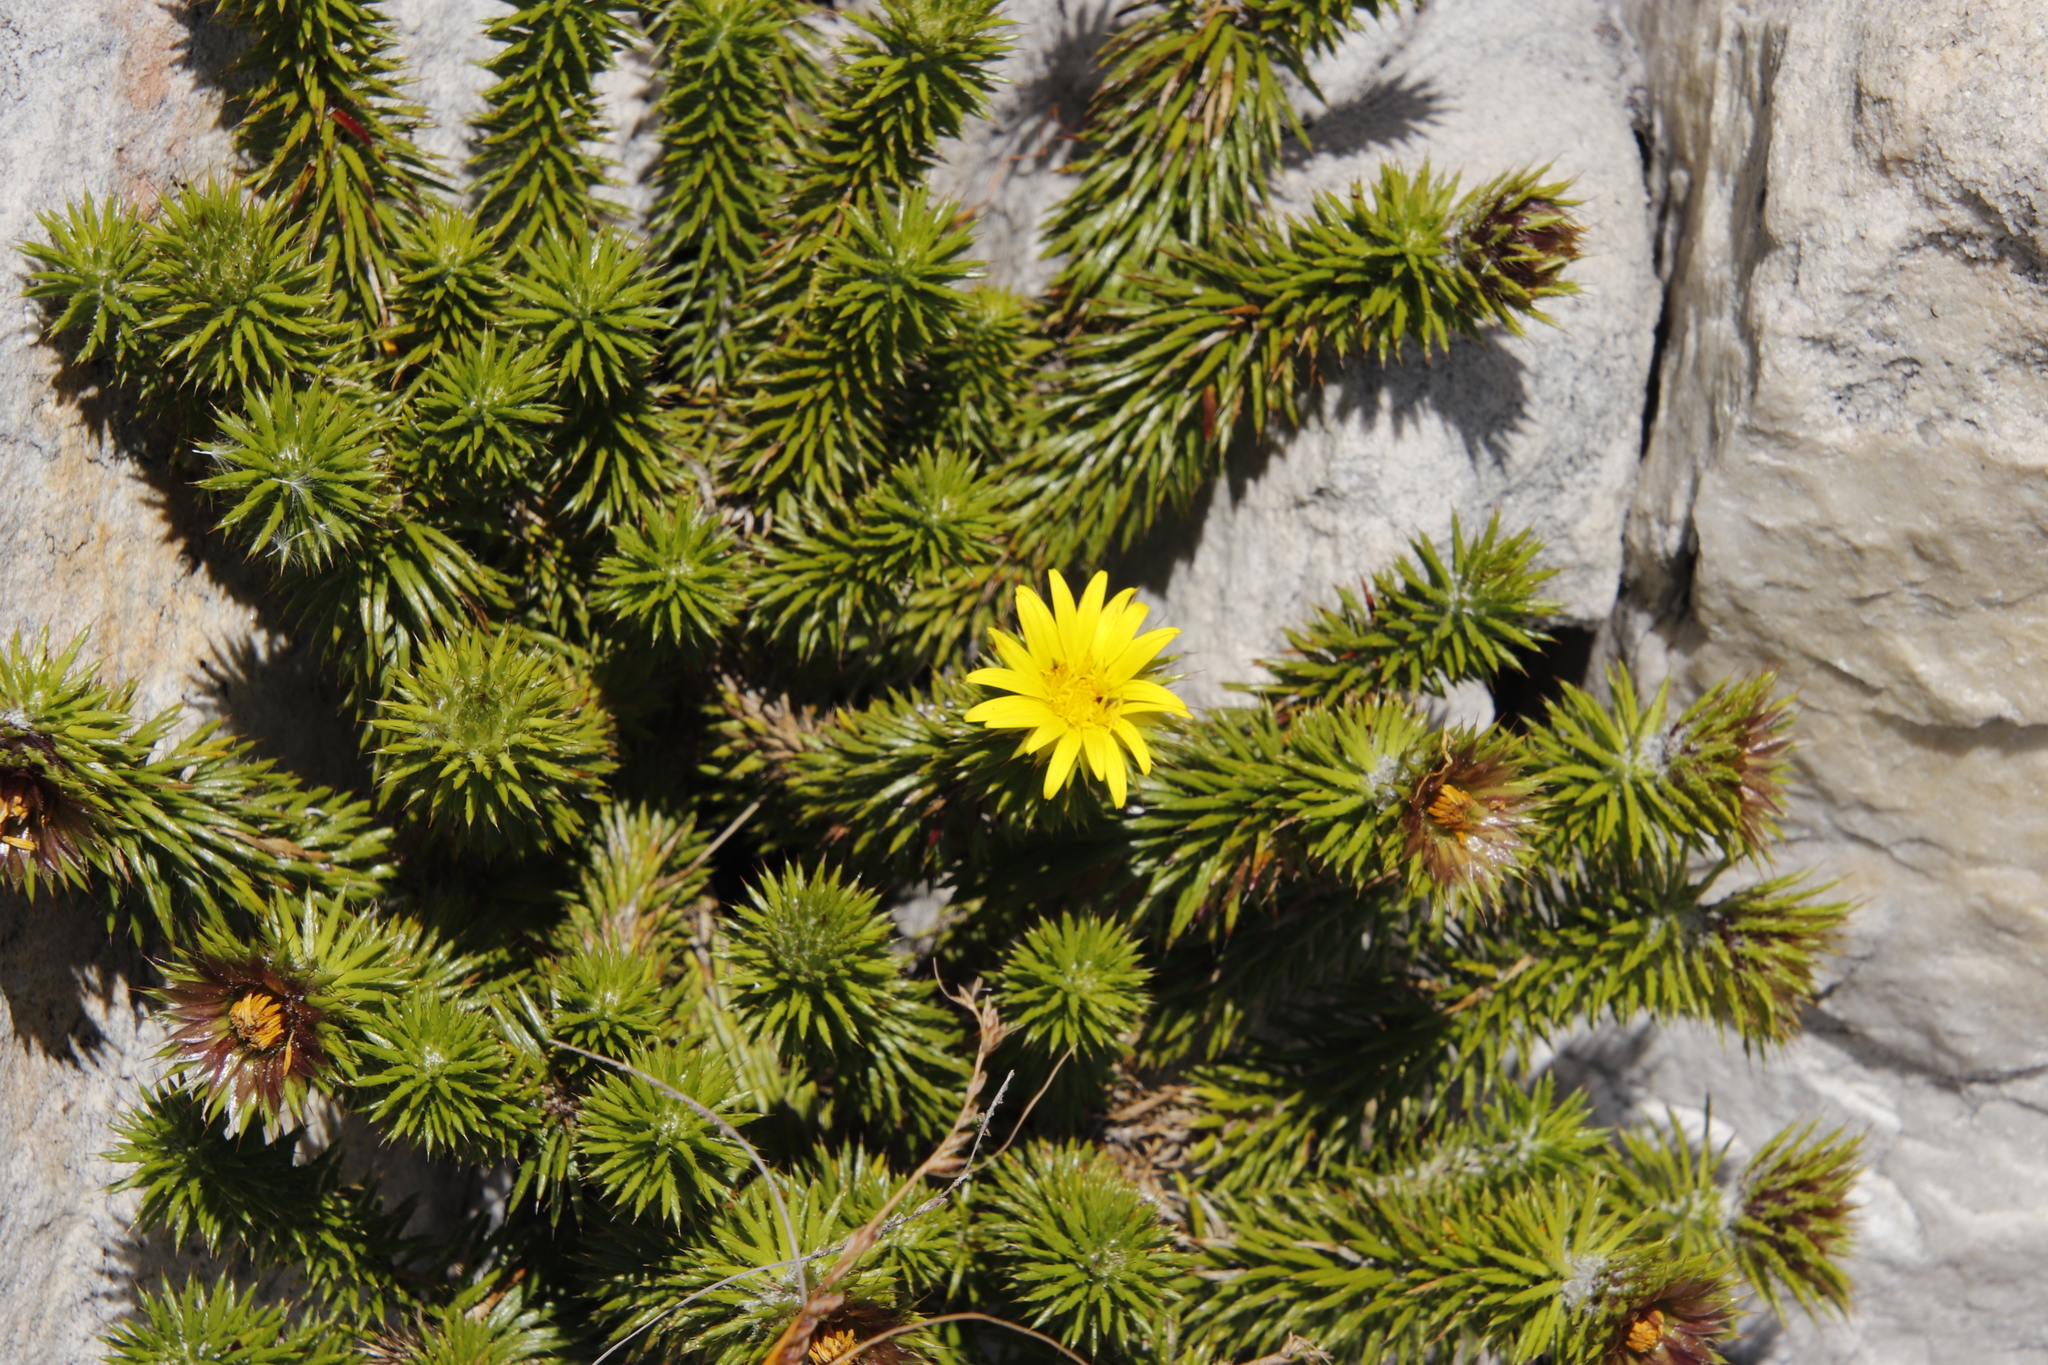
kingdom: Plantae
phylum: Tracheophyta
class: Magnoliopsida
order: Asterales
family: Asteraceae
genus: Cullumia
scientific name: Cullumia squarrosa
